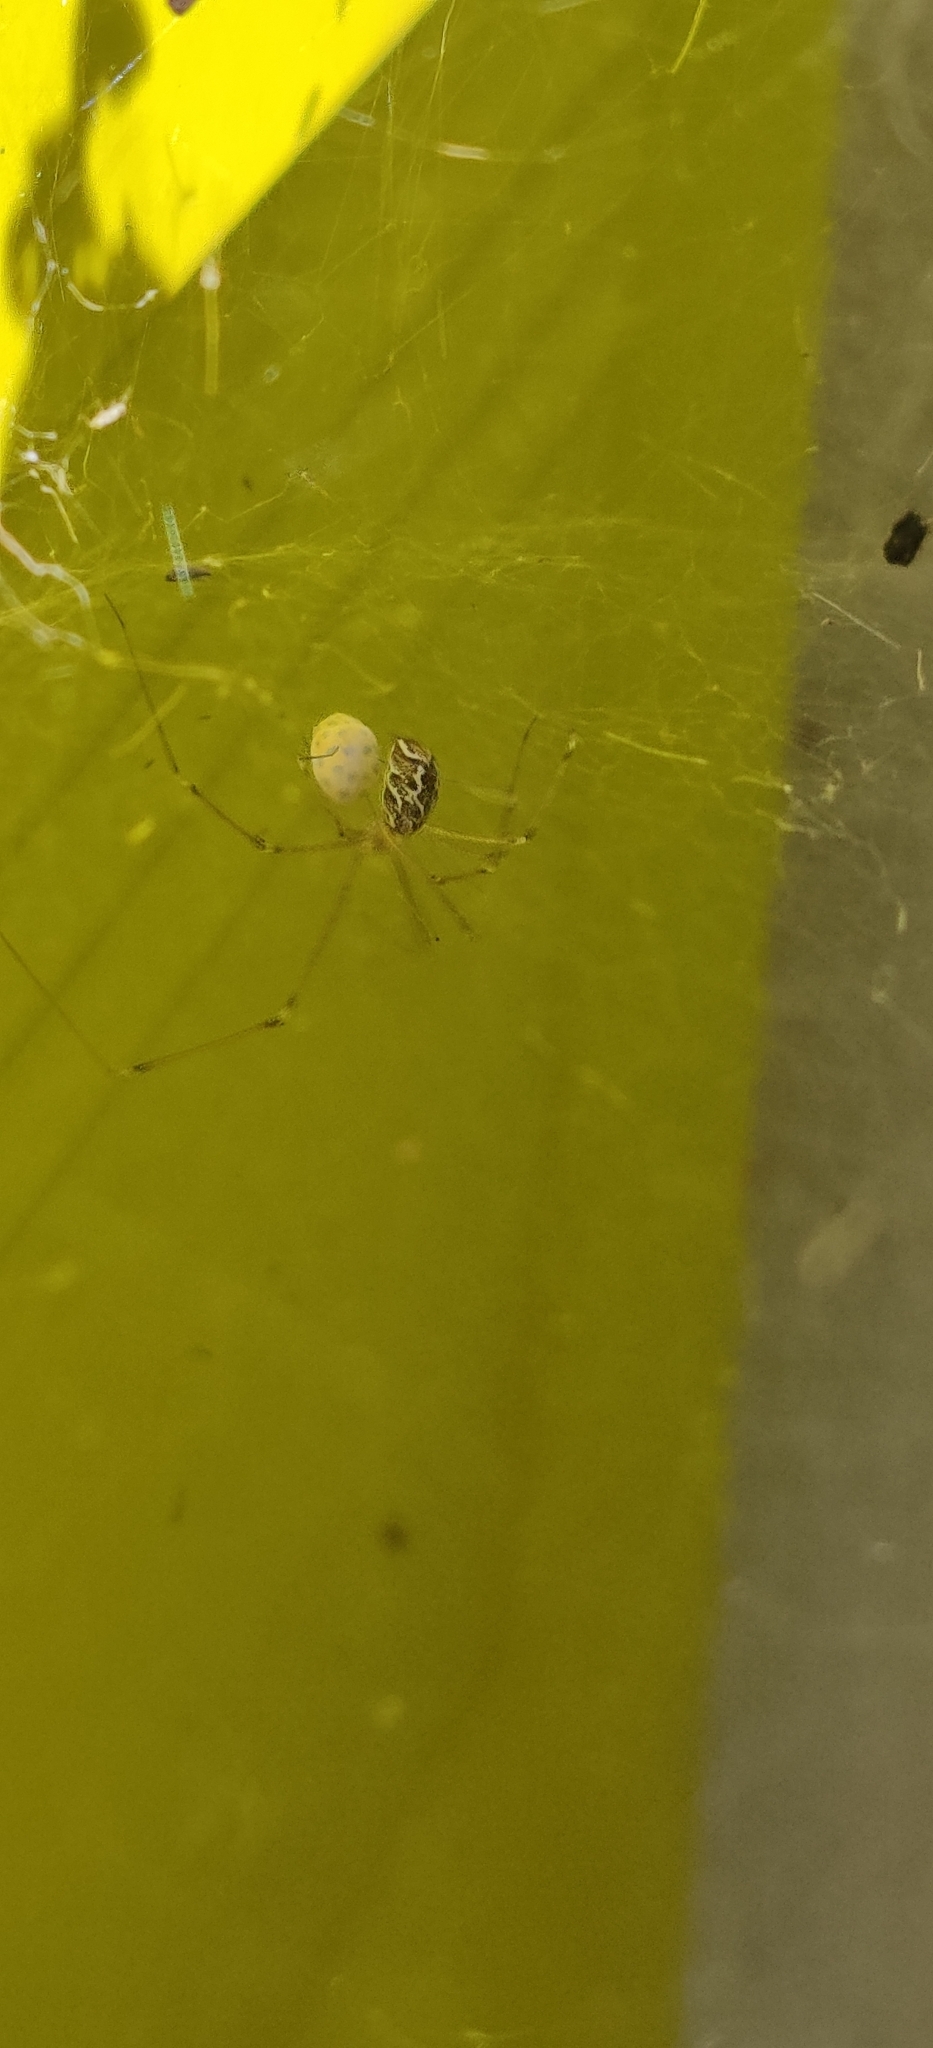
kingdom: Animalia
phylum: Arthropoda
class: Arachnida
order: Araneae
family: Pholcidae
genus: Holocnemus
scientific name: Holocnemus pluchei
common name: Marbled cellar spider
